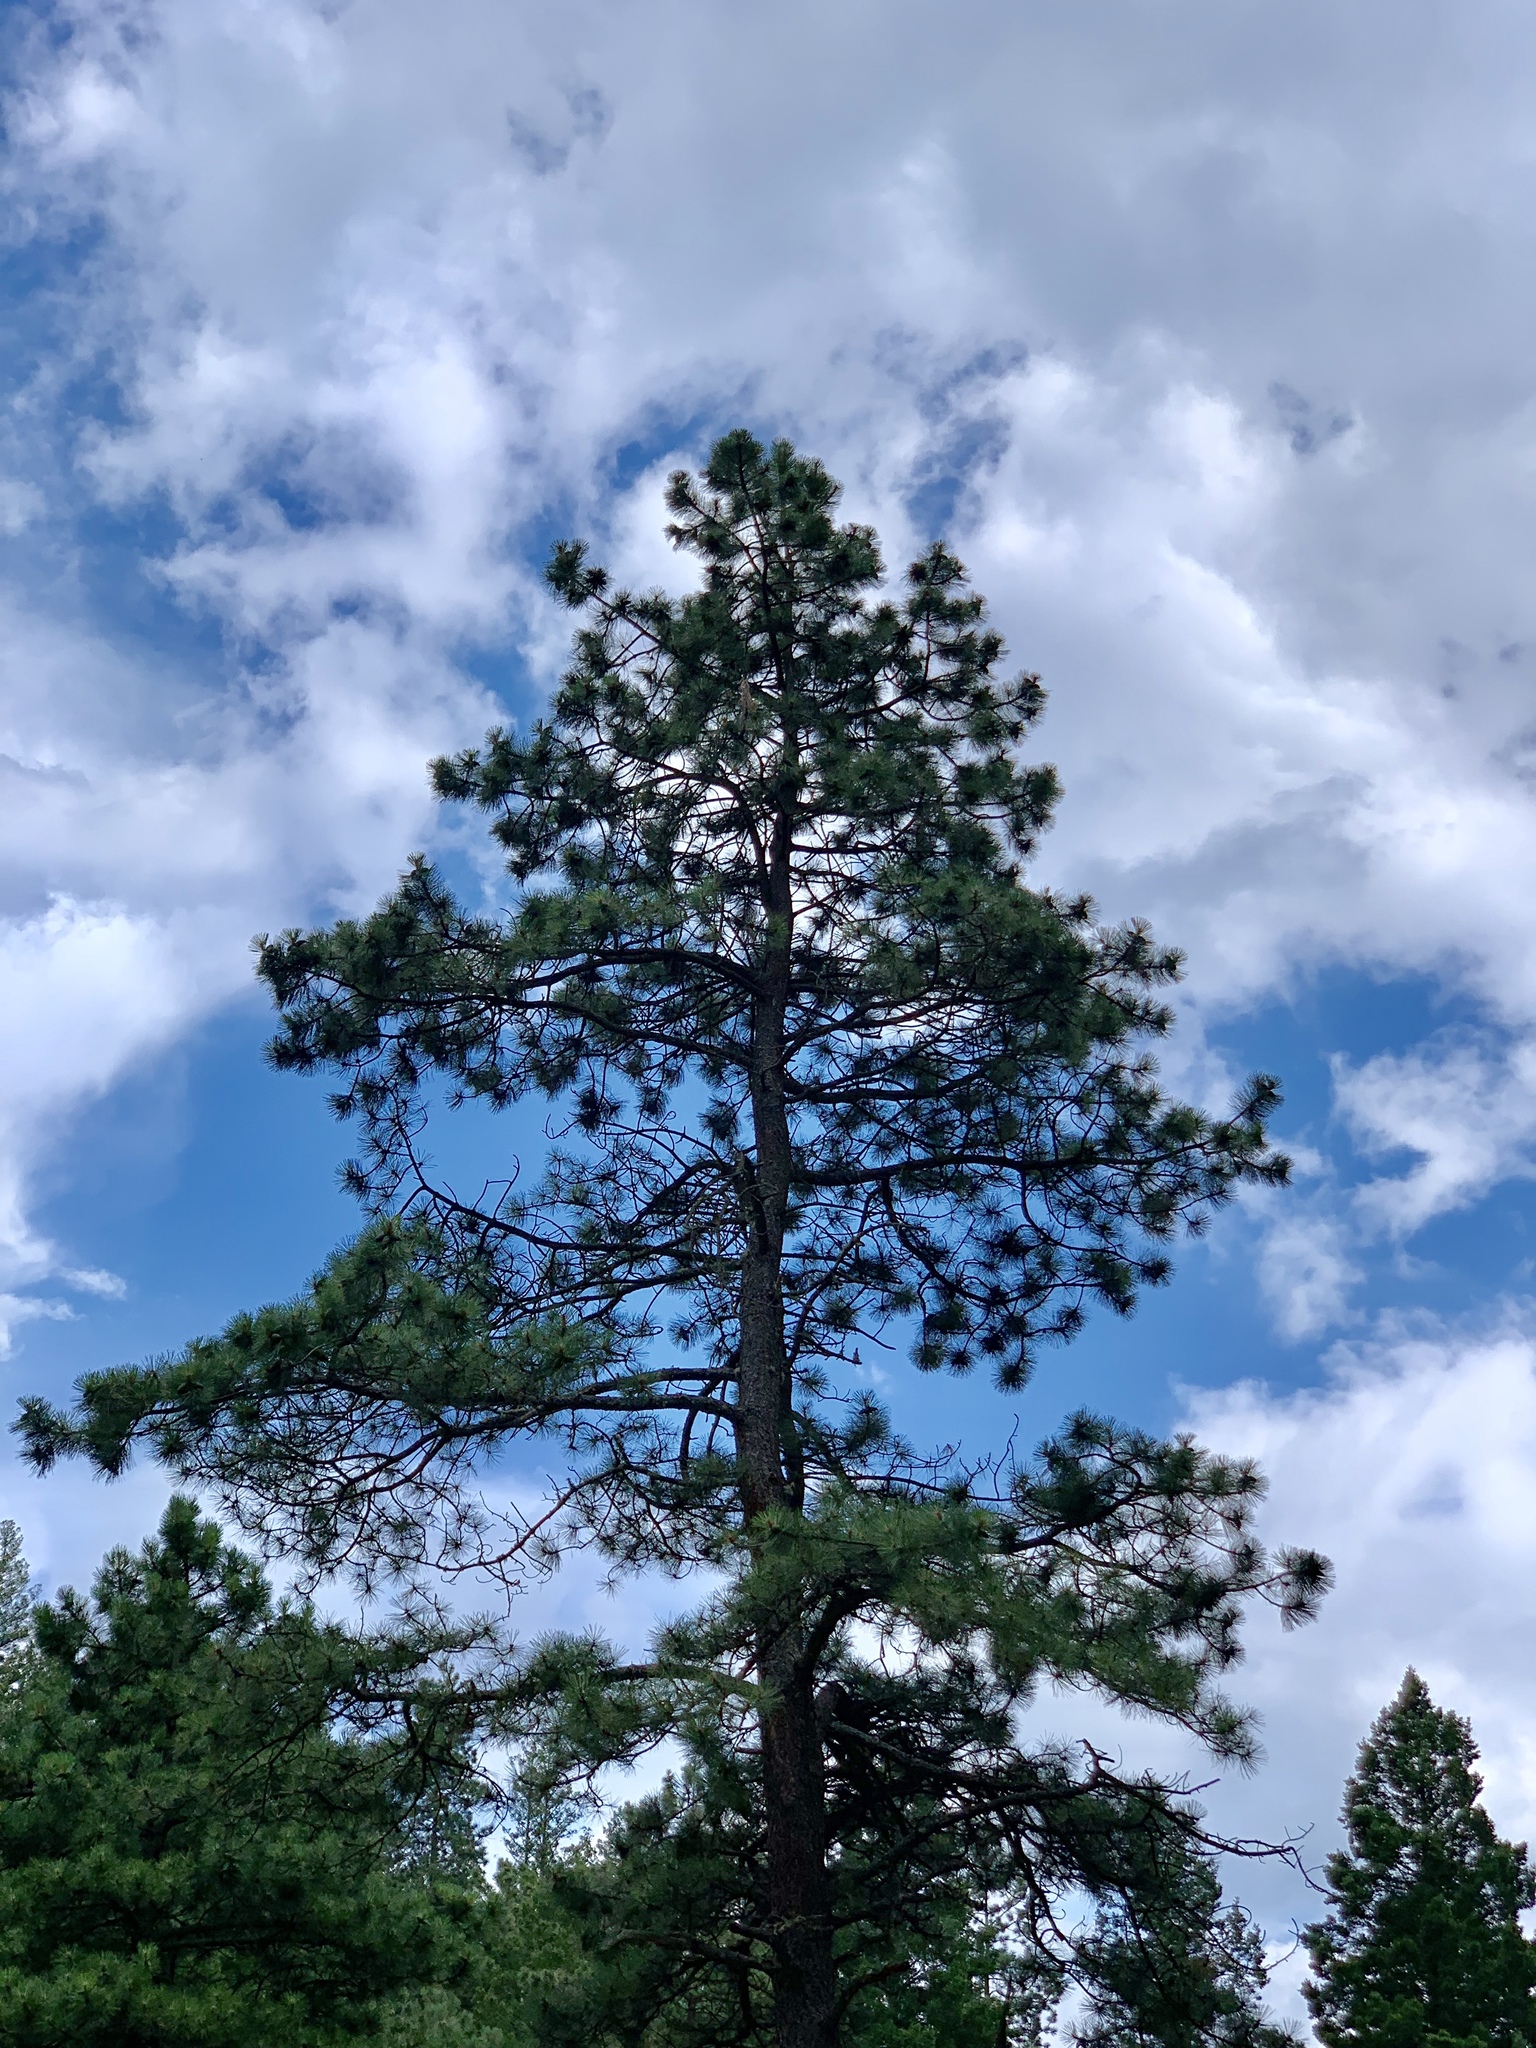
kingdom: Plantae
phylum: Tracheophyta
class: Pinopsida
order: Pinales
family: Pinaceae
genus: Pinus
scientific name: Pinus ponderosa
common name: Western yellow-pine
